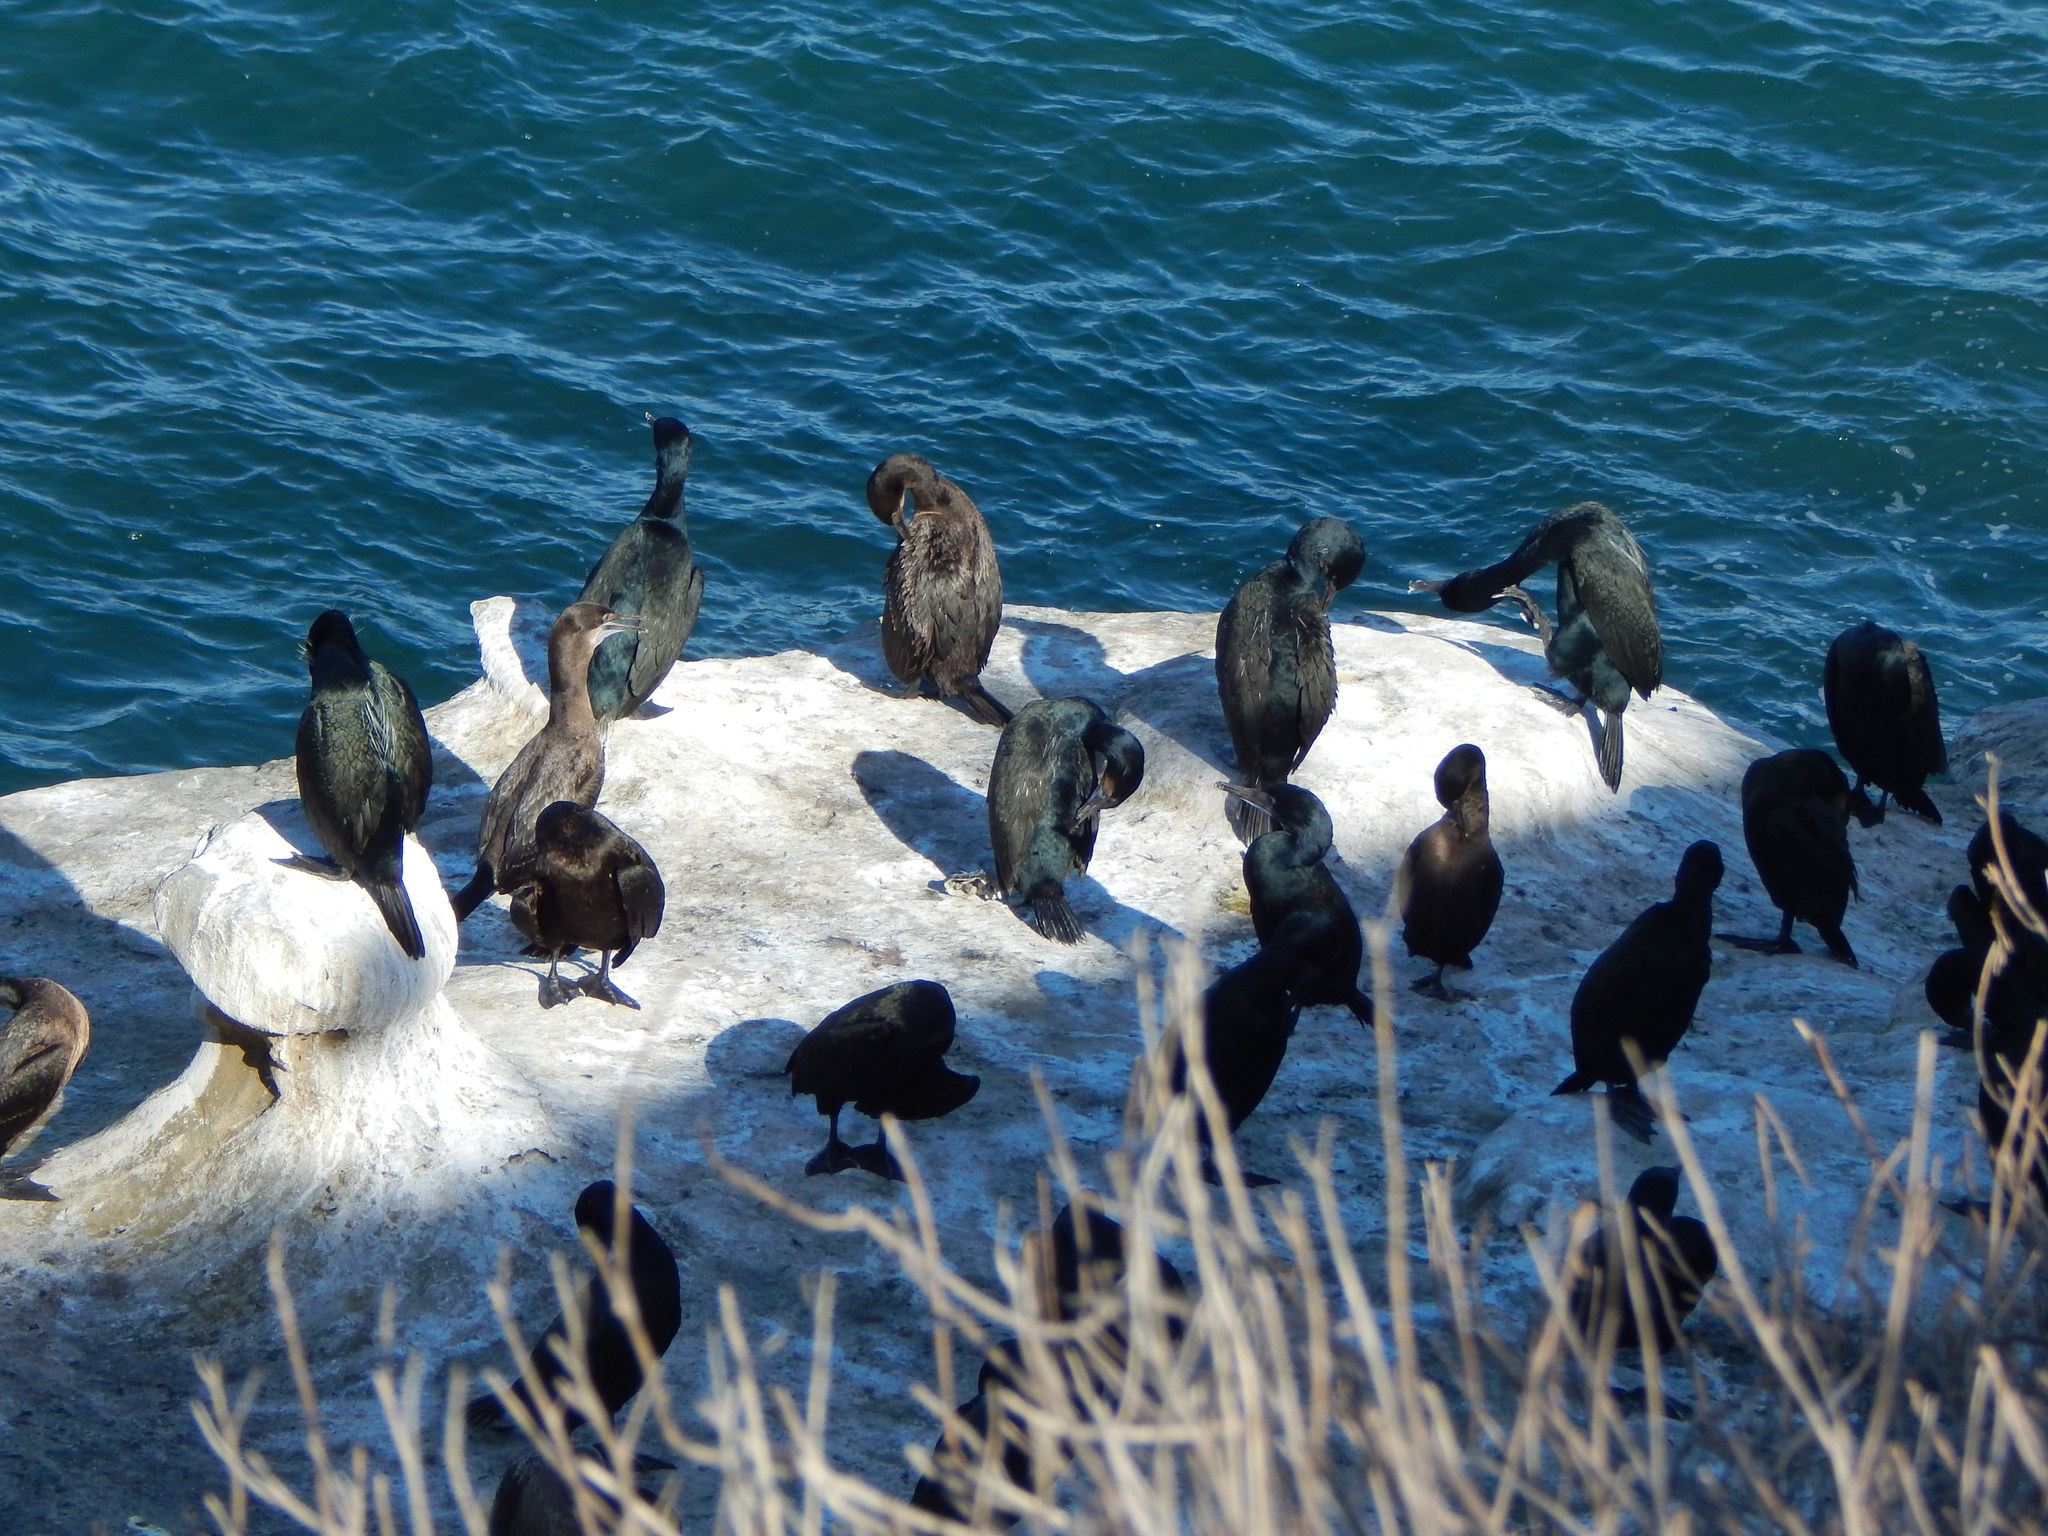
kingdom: Animalia
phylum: Chordata
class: Aves
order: Suliformes
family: Phalacrocoracidae
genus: Urile
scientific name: Urile penicillatus
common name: Brandt's cormorant
